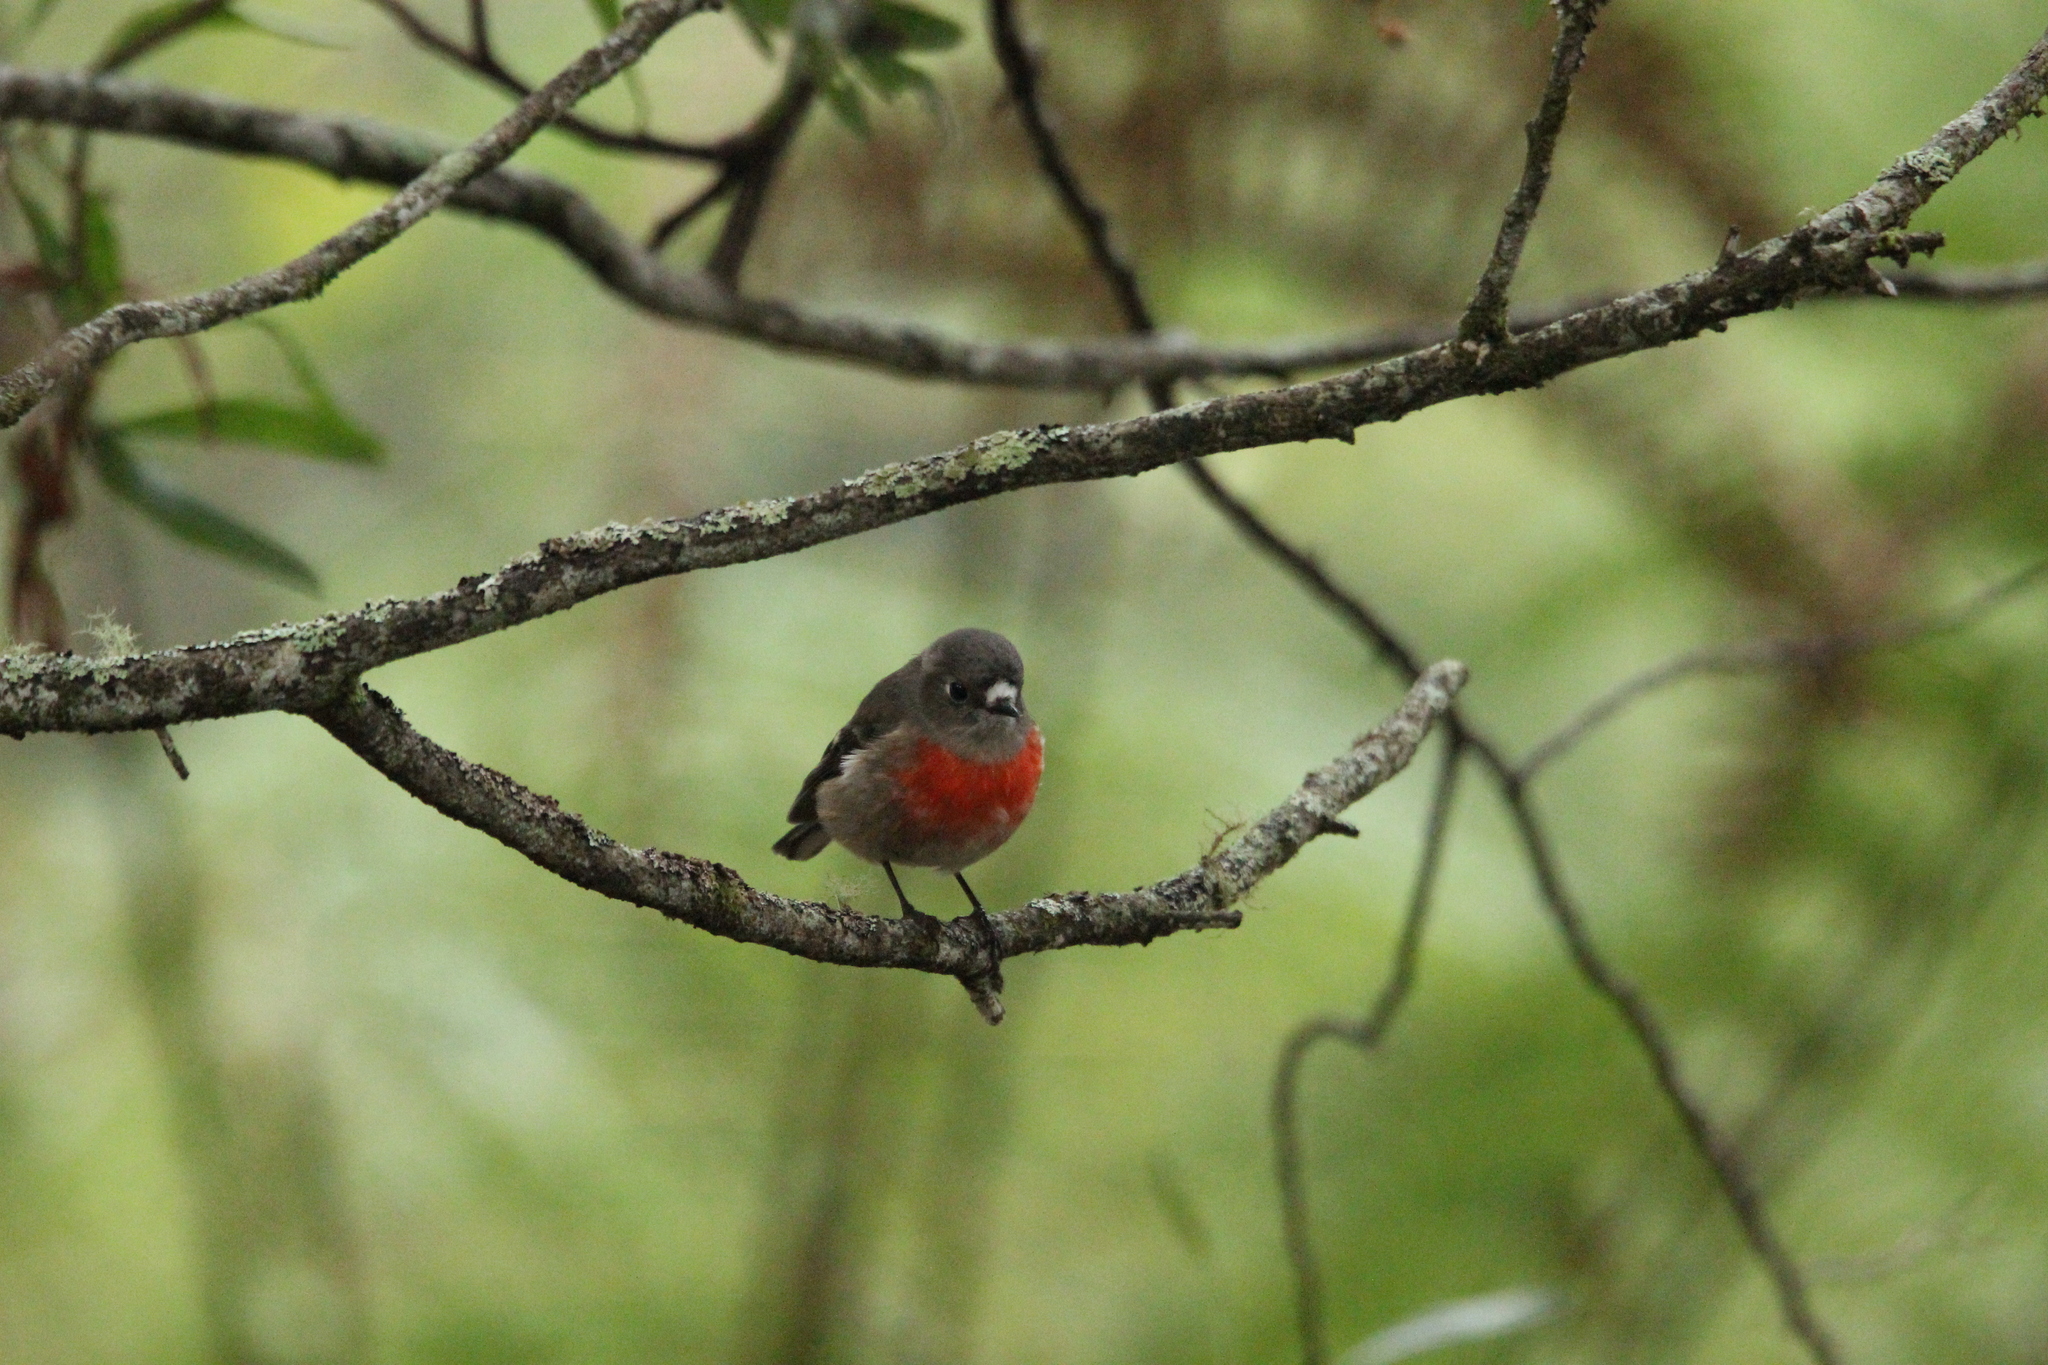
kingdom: Animalia
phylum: Chordata
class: Aves
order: Passeriformes
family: Petroicidae
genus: Petroica
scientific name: Petroica boodang
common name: Scarlet robin
